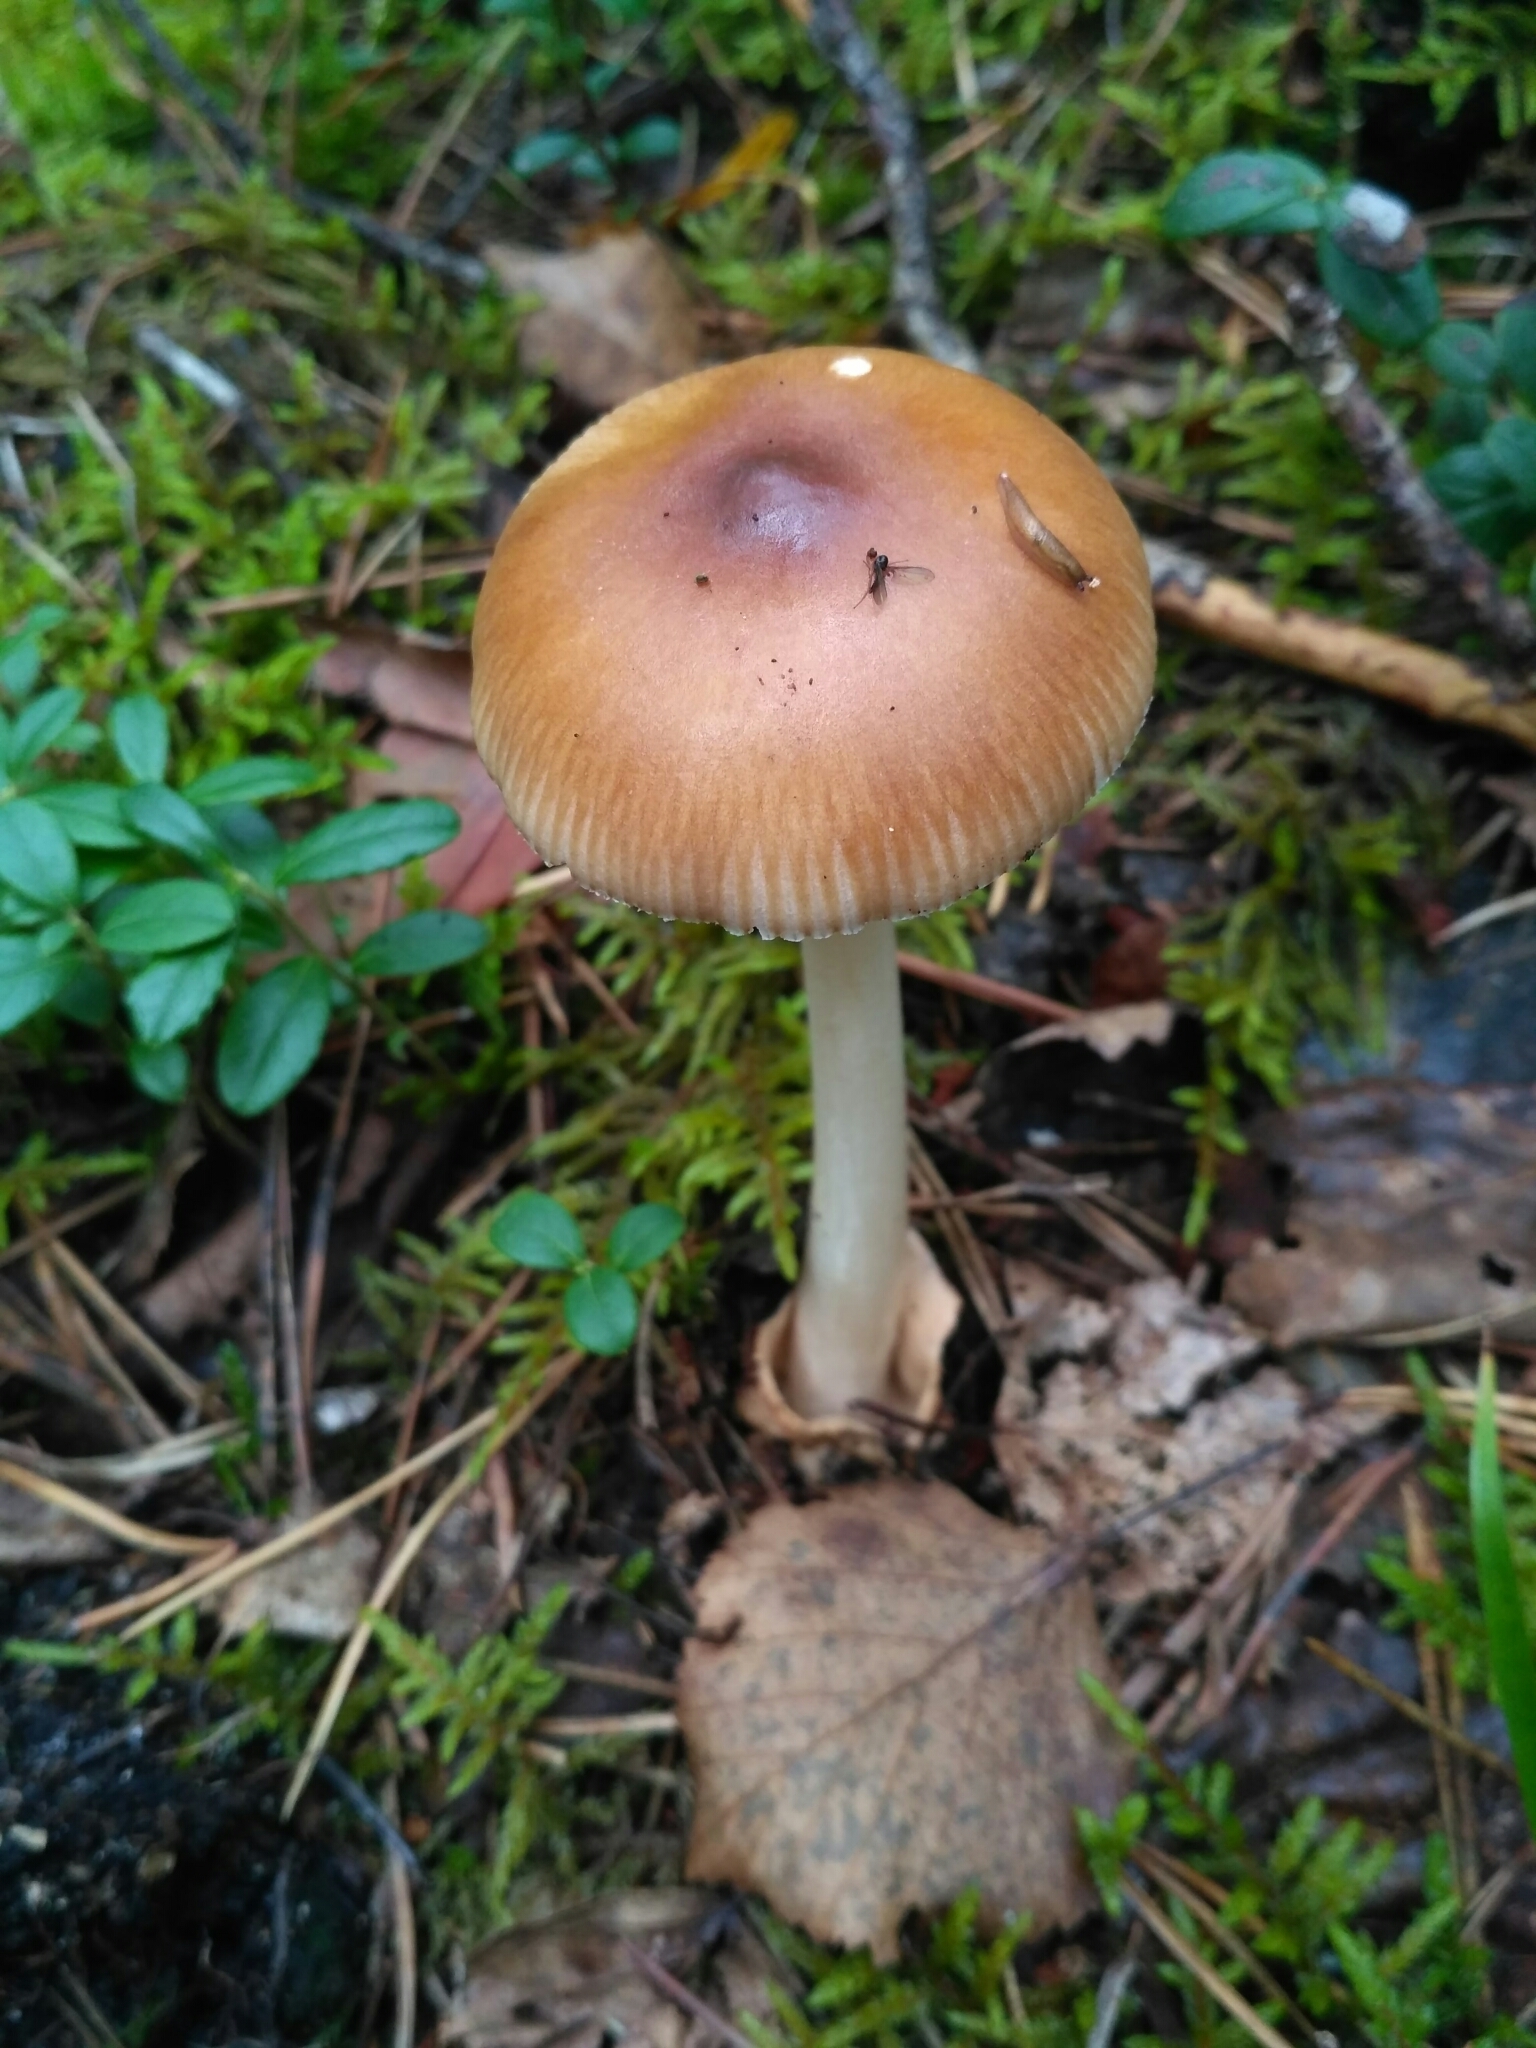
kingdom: Fungi
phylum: Basidiomycota
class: Agaricomycetes
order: Agaricales
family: Amanitaceae
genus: Amanita
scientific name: Amanita fulva
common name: Tawny grisette
